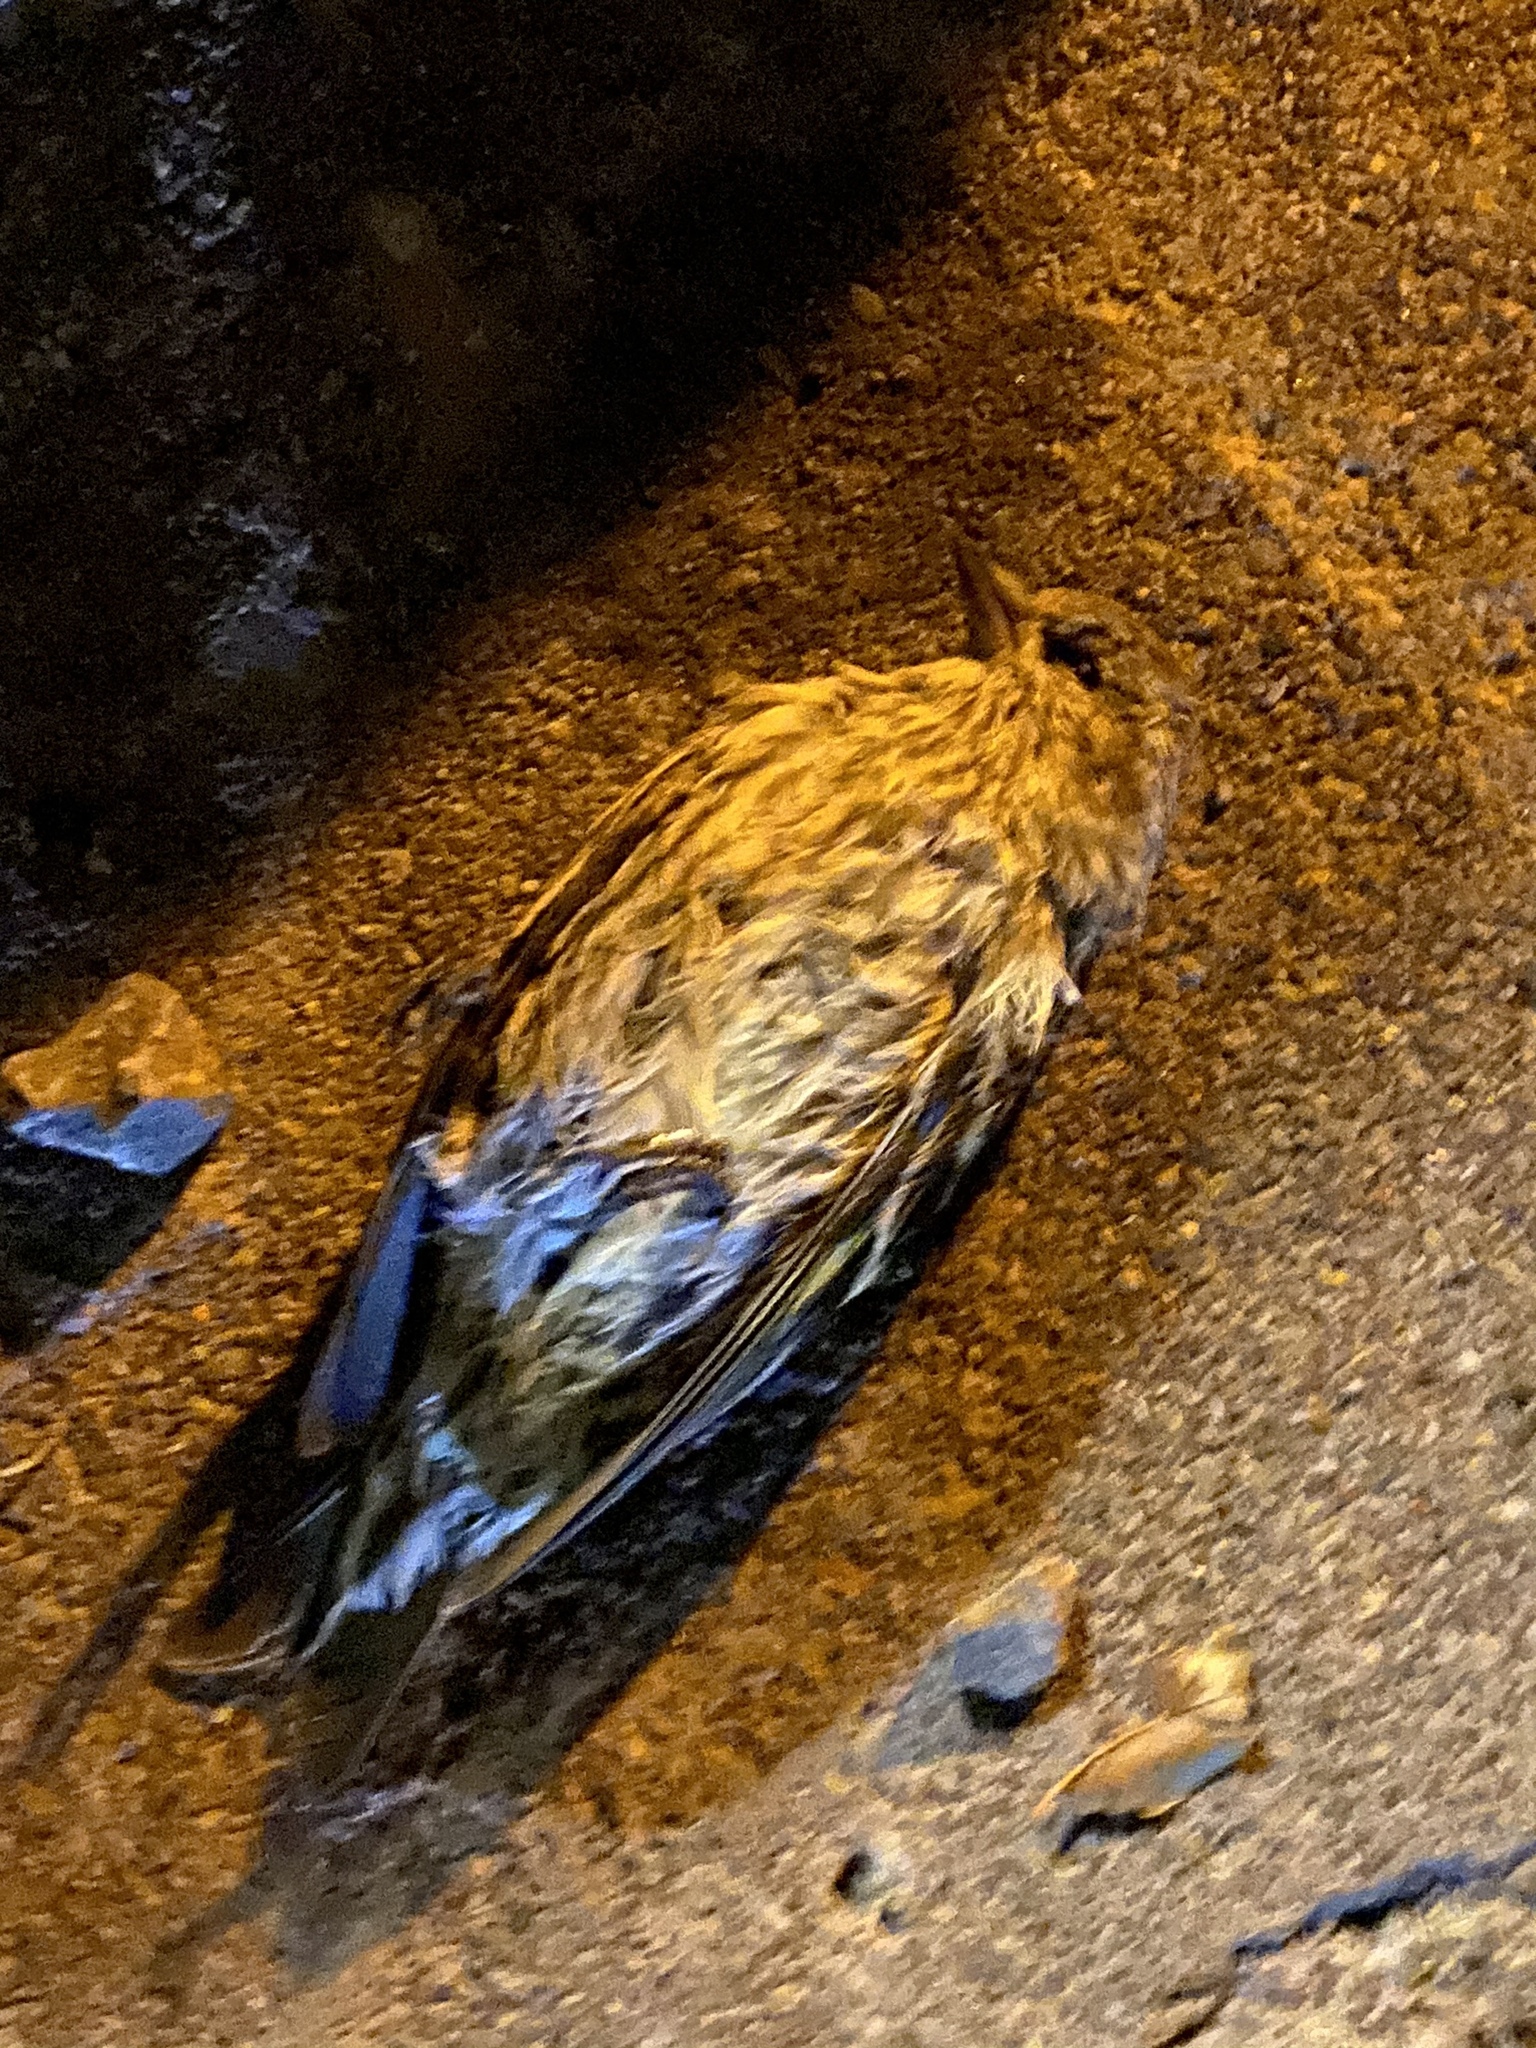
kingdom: Animalia
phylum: Chordata
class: Aves
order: Passeriformes
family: Fringillidae
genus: Spinus
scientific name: Spinus pinus
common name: Pine siskin
